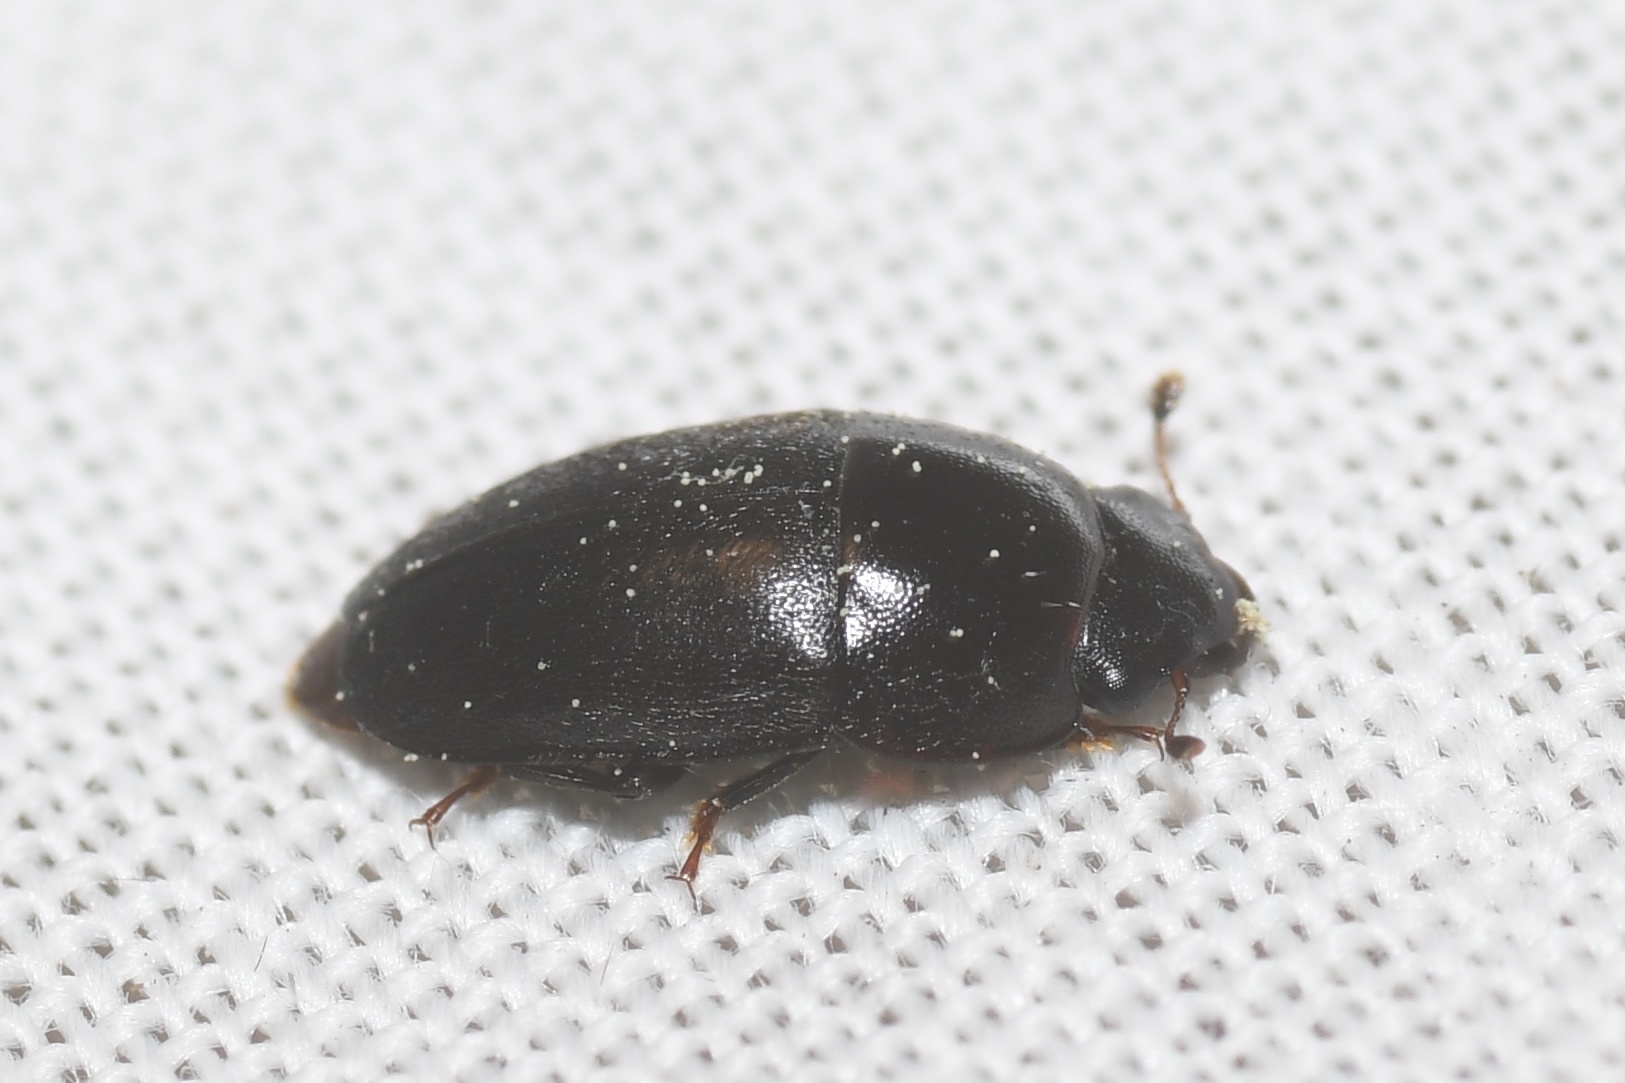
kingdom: Animalia
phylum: Arthropoda
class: Insecta
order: Coleoptera
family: Nitidulidae
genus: Cryptarcha
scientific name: Cryptarcha ampla
